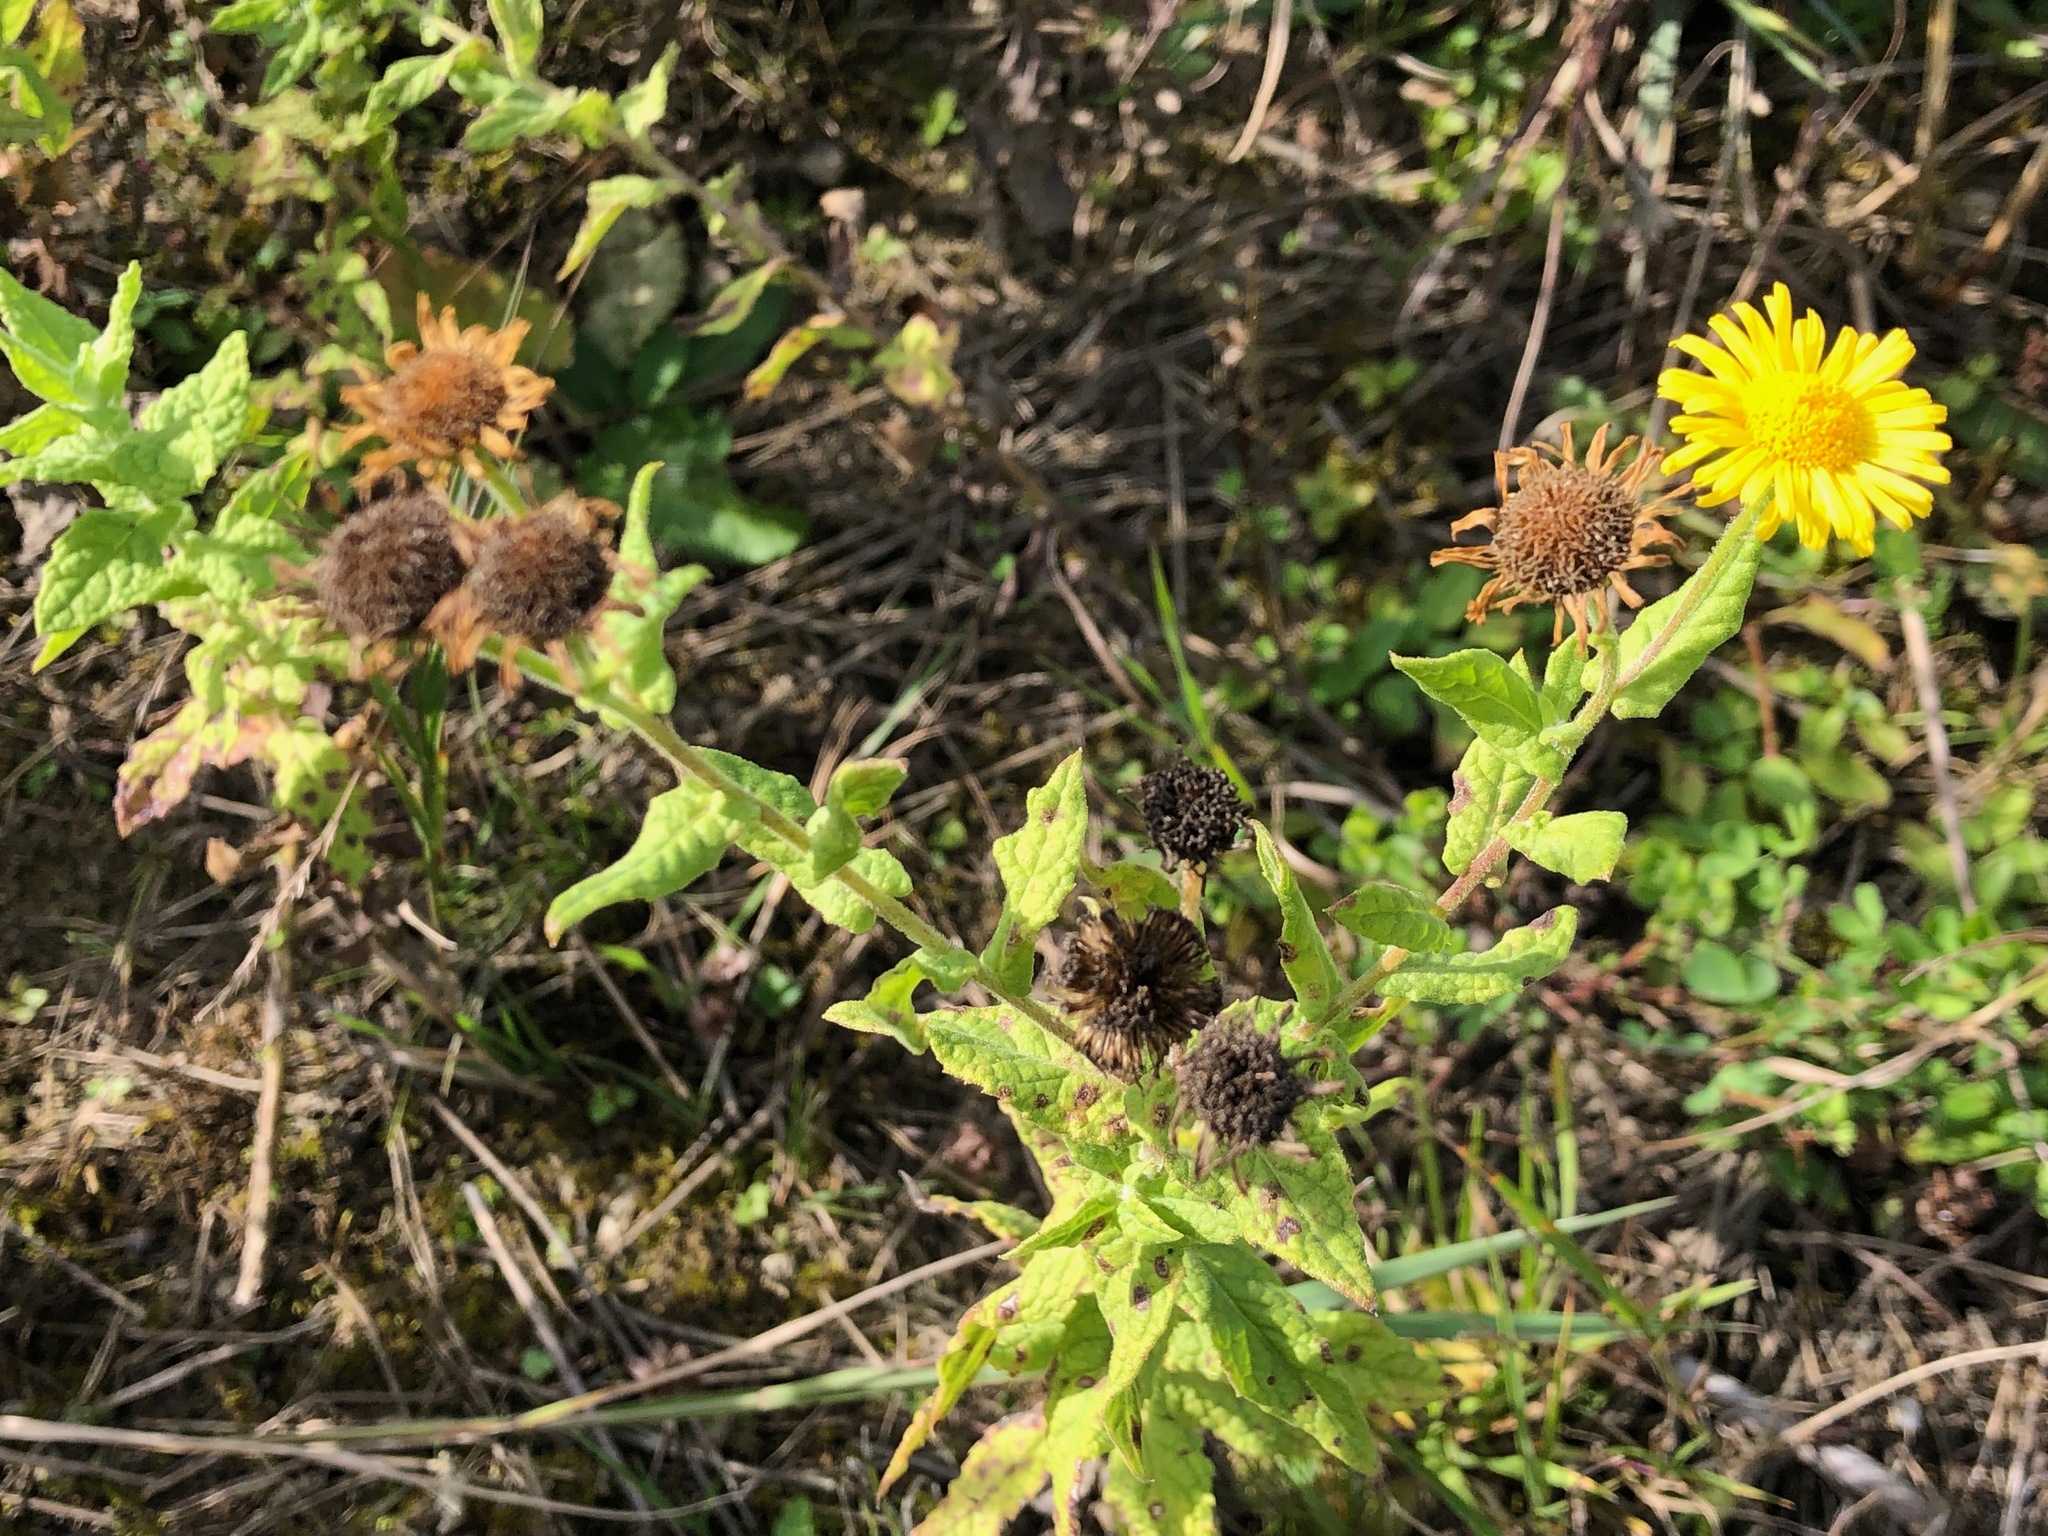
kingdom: Plantae
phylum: Tracheophyta
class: Magnoliopsida
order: Asterales
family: Asteraceae
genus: Pulicaria
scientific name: Pulicaria dysenterica
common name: Common fleabane
